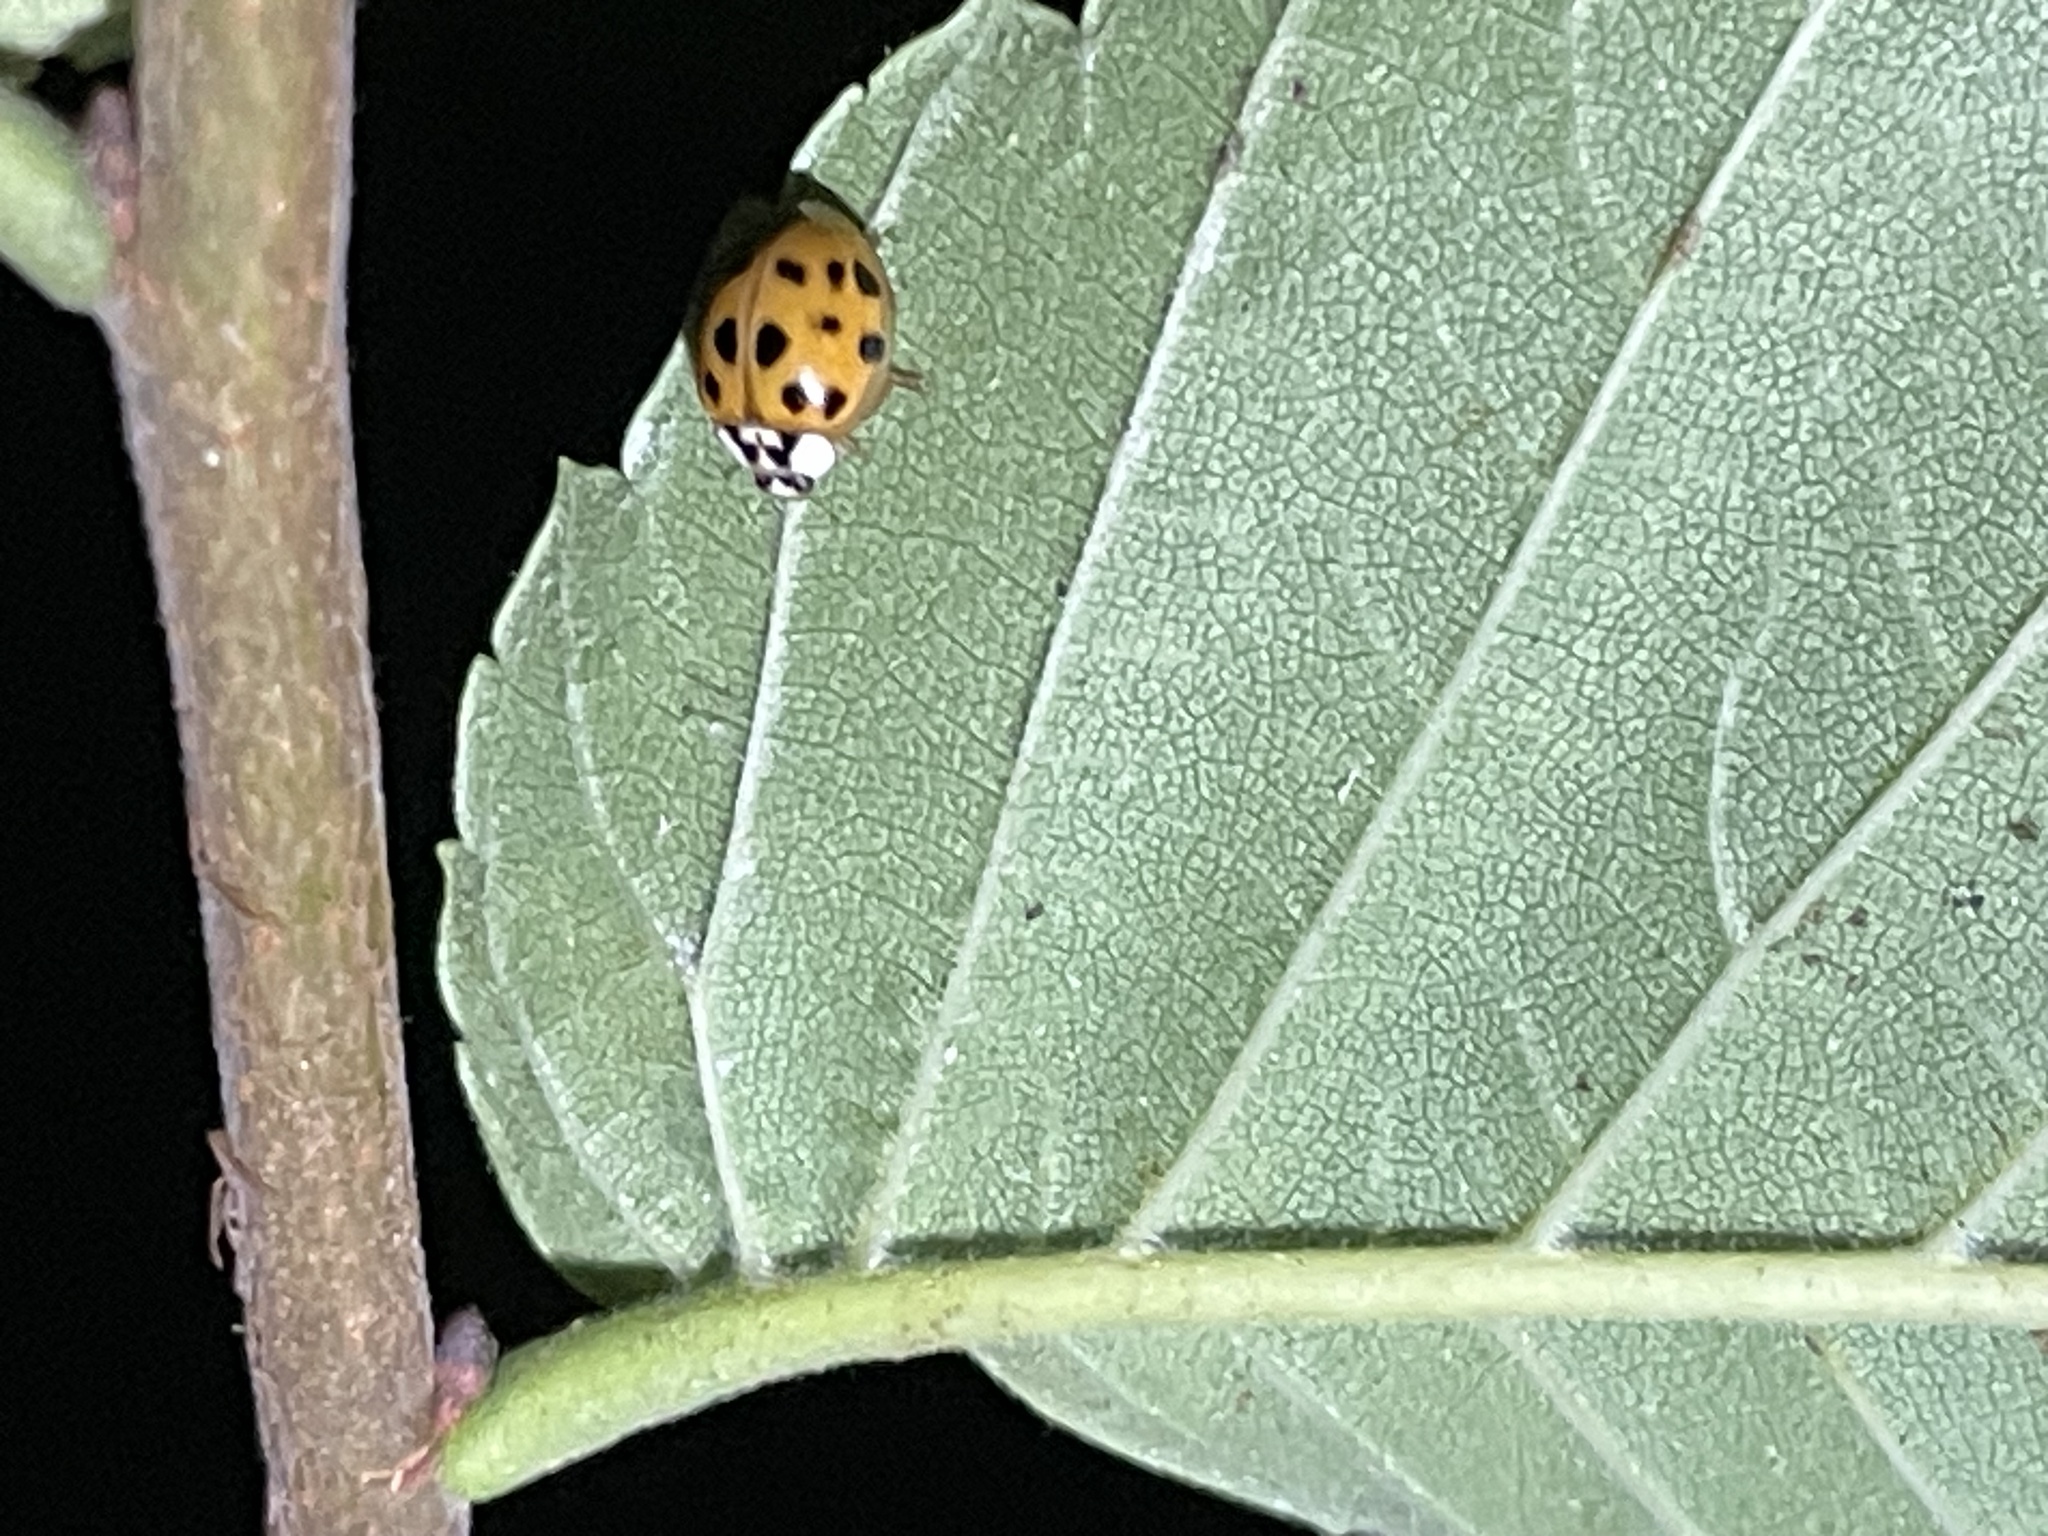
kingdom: Animalia
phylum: Arthropoda
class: Insecta
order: Coleoptera
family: Coccinellidae
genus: Harmonia
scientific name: Harmonia axyridis
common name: Harlequin ladybird
